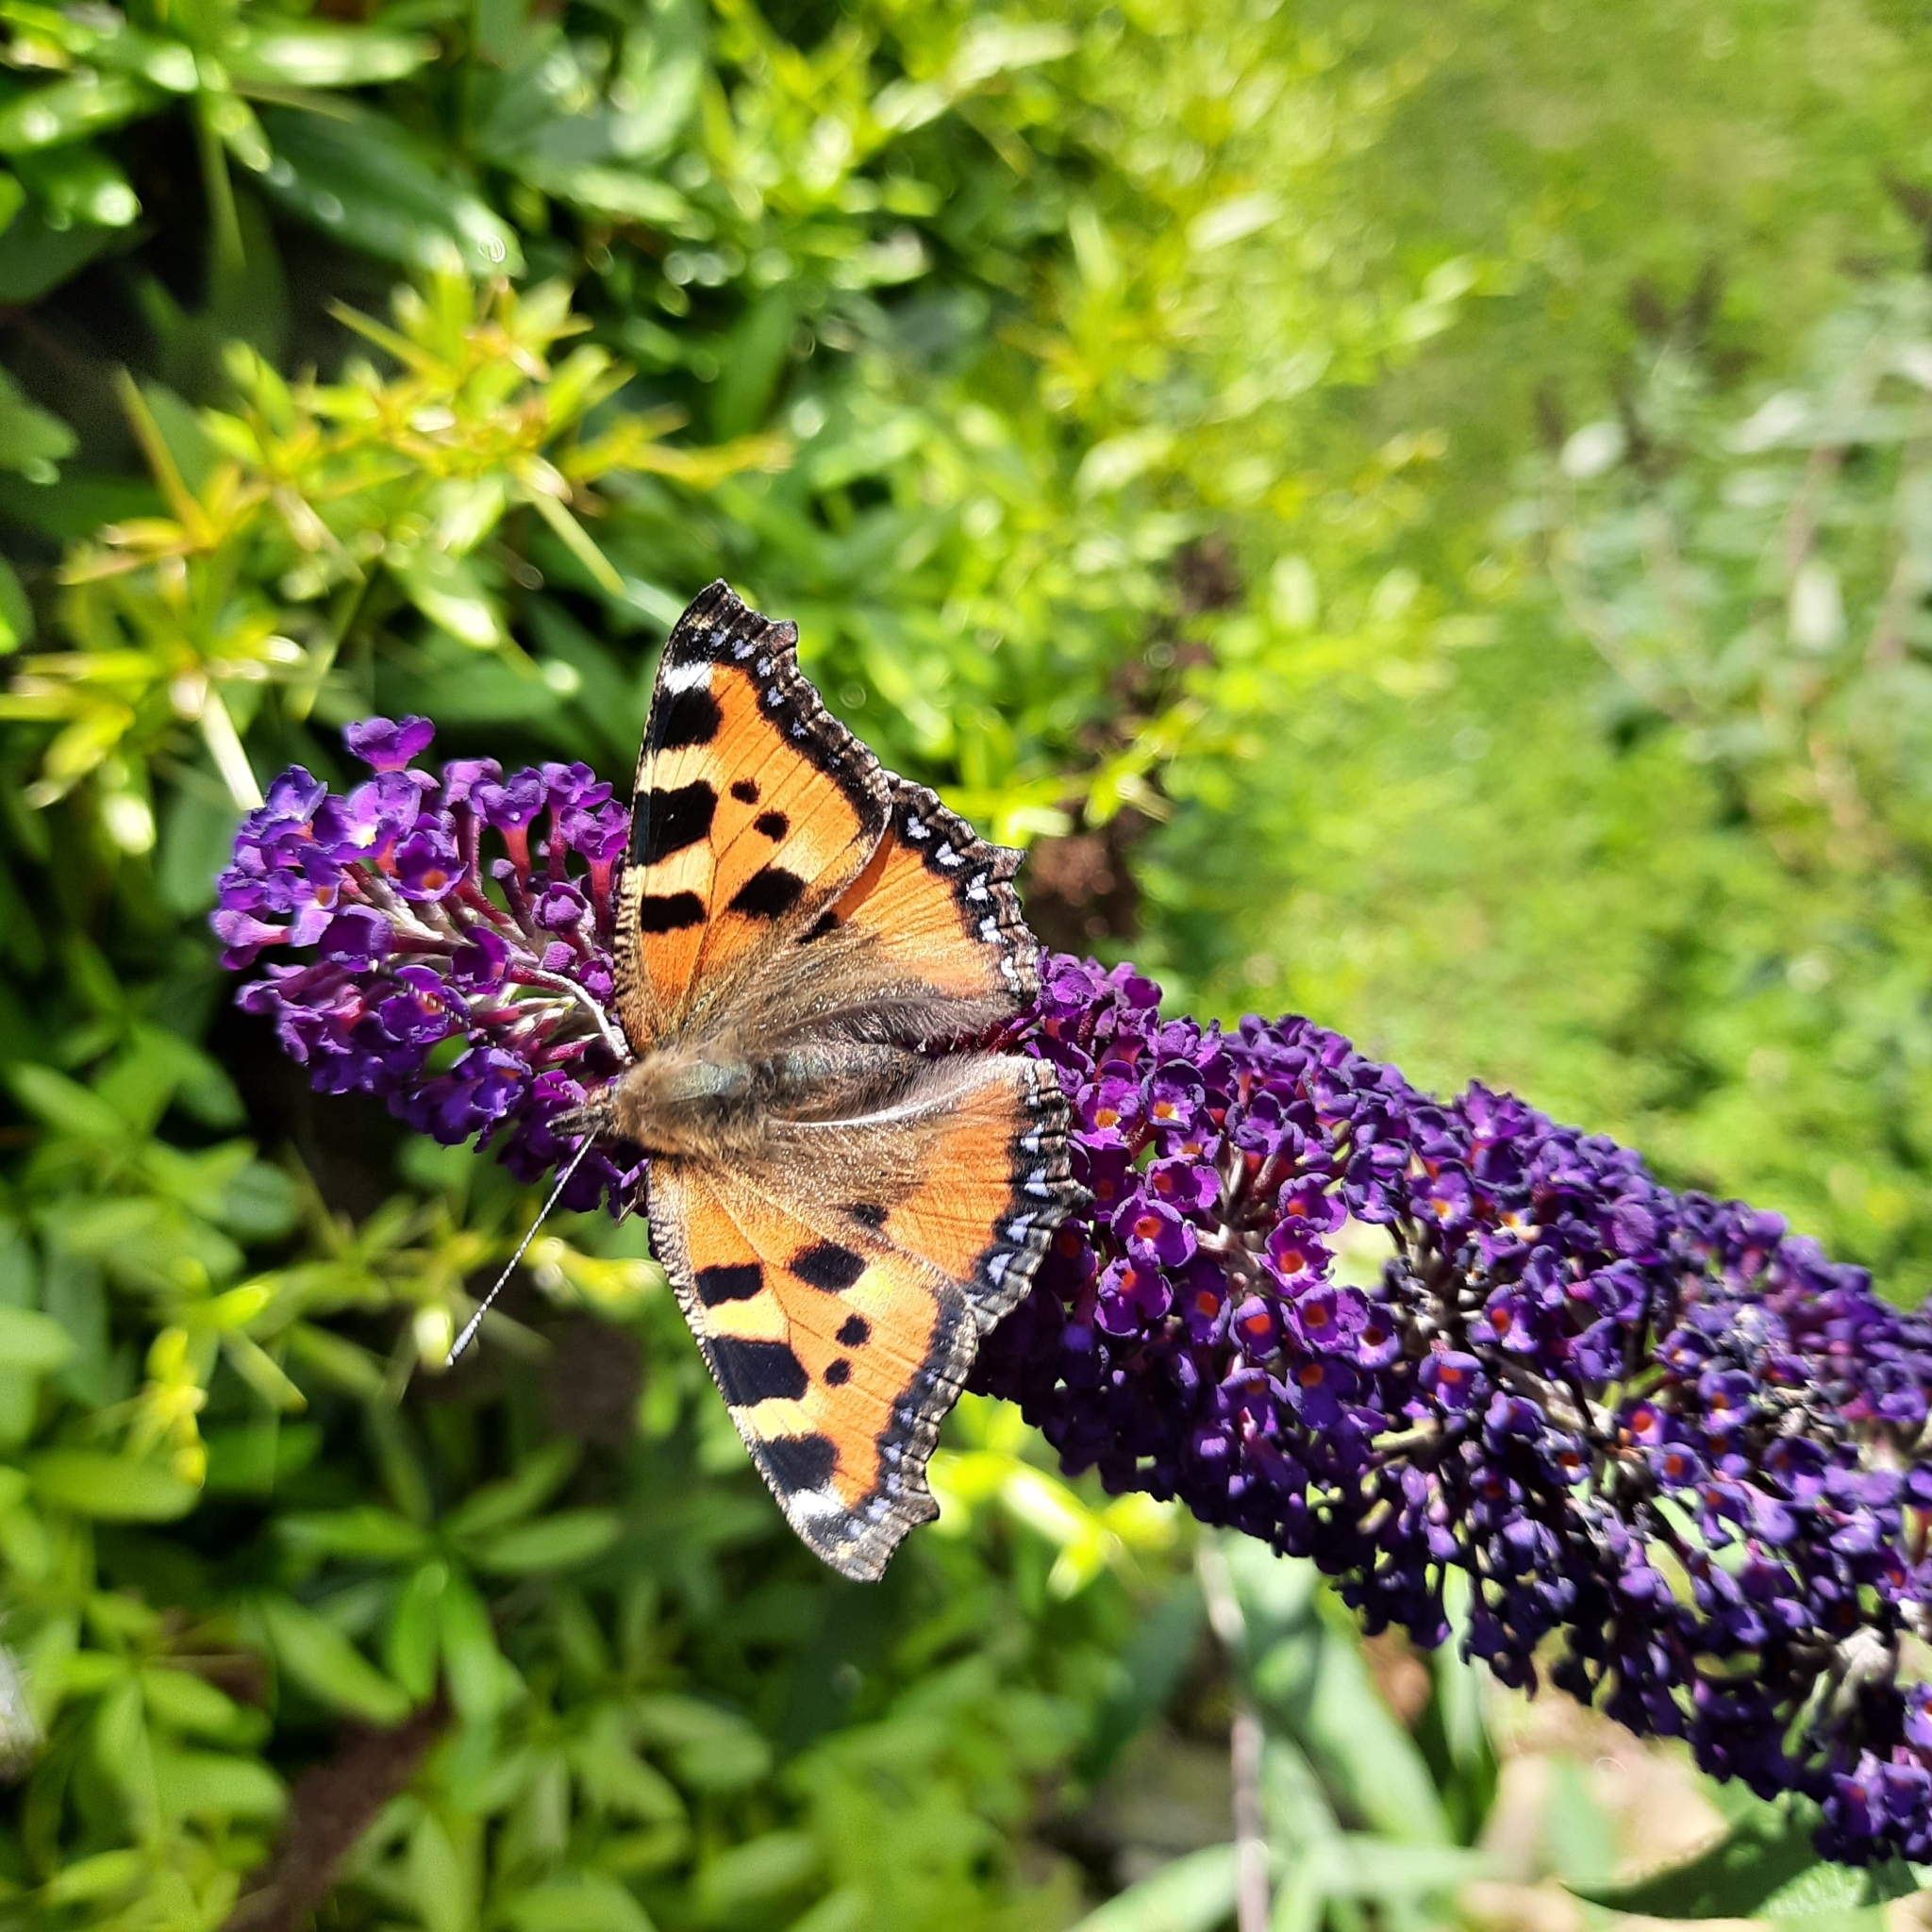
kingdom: Animalia
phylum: Arthropoda
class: Insecta
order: Lepidoptera
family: Nymphalidae
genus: Aglais
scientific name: Aglais urticae
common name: Small tortoiseshell
